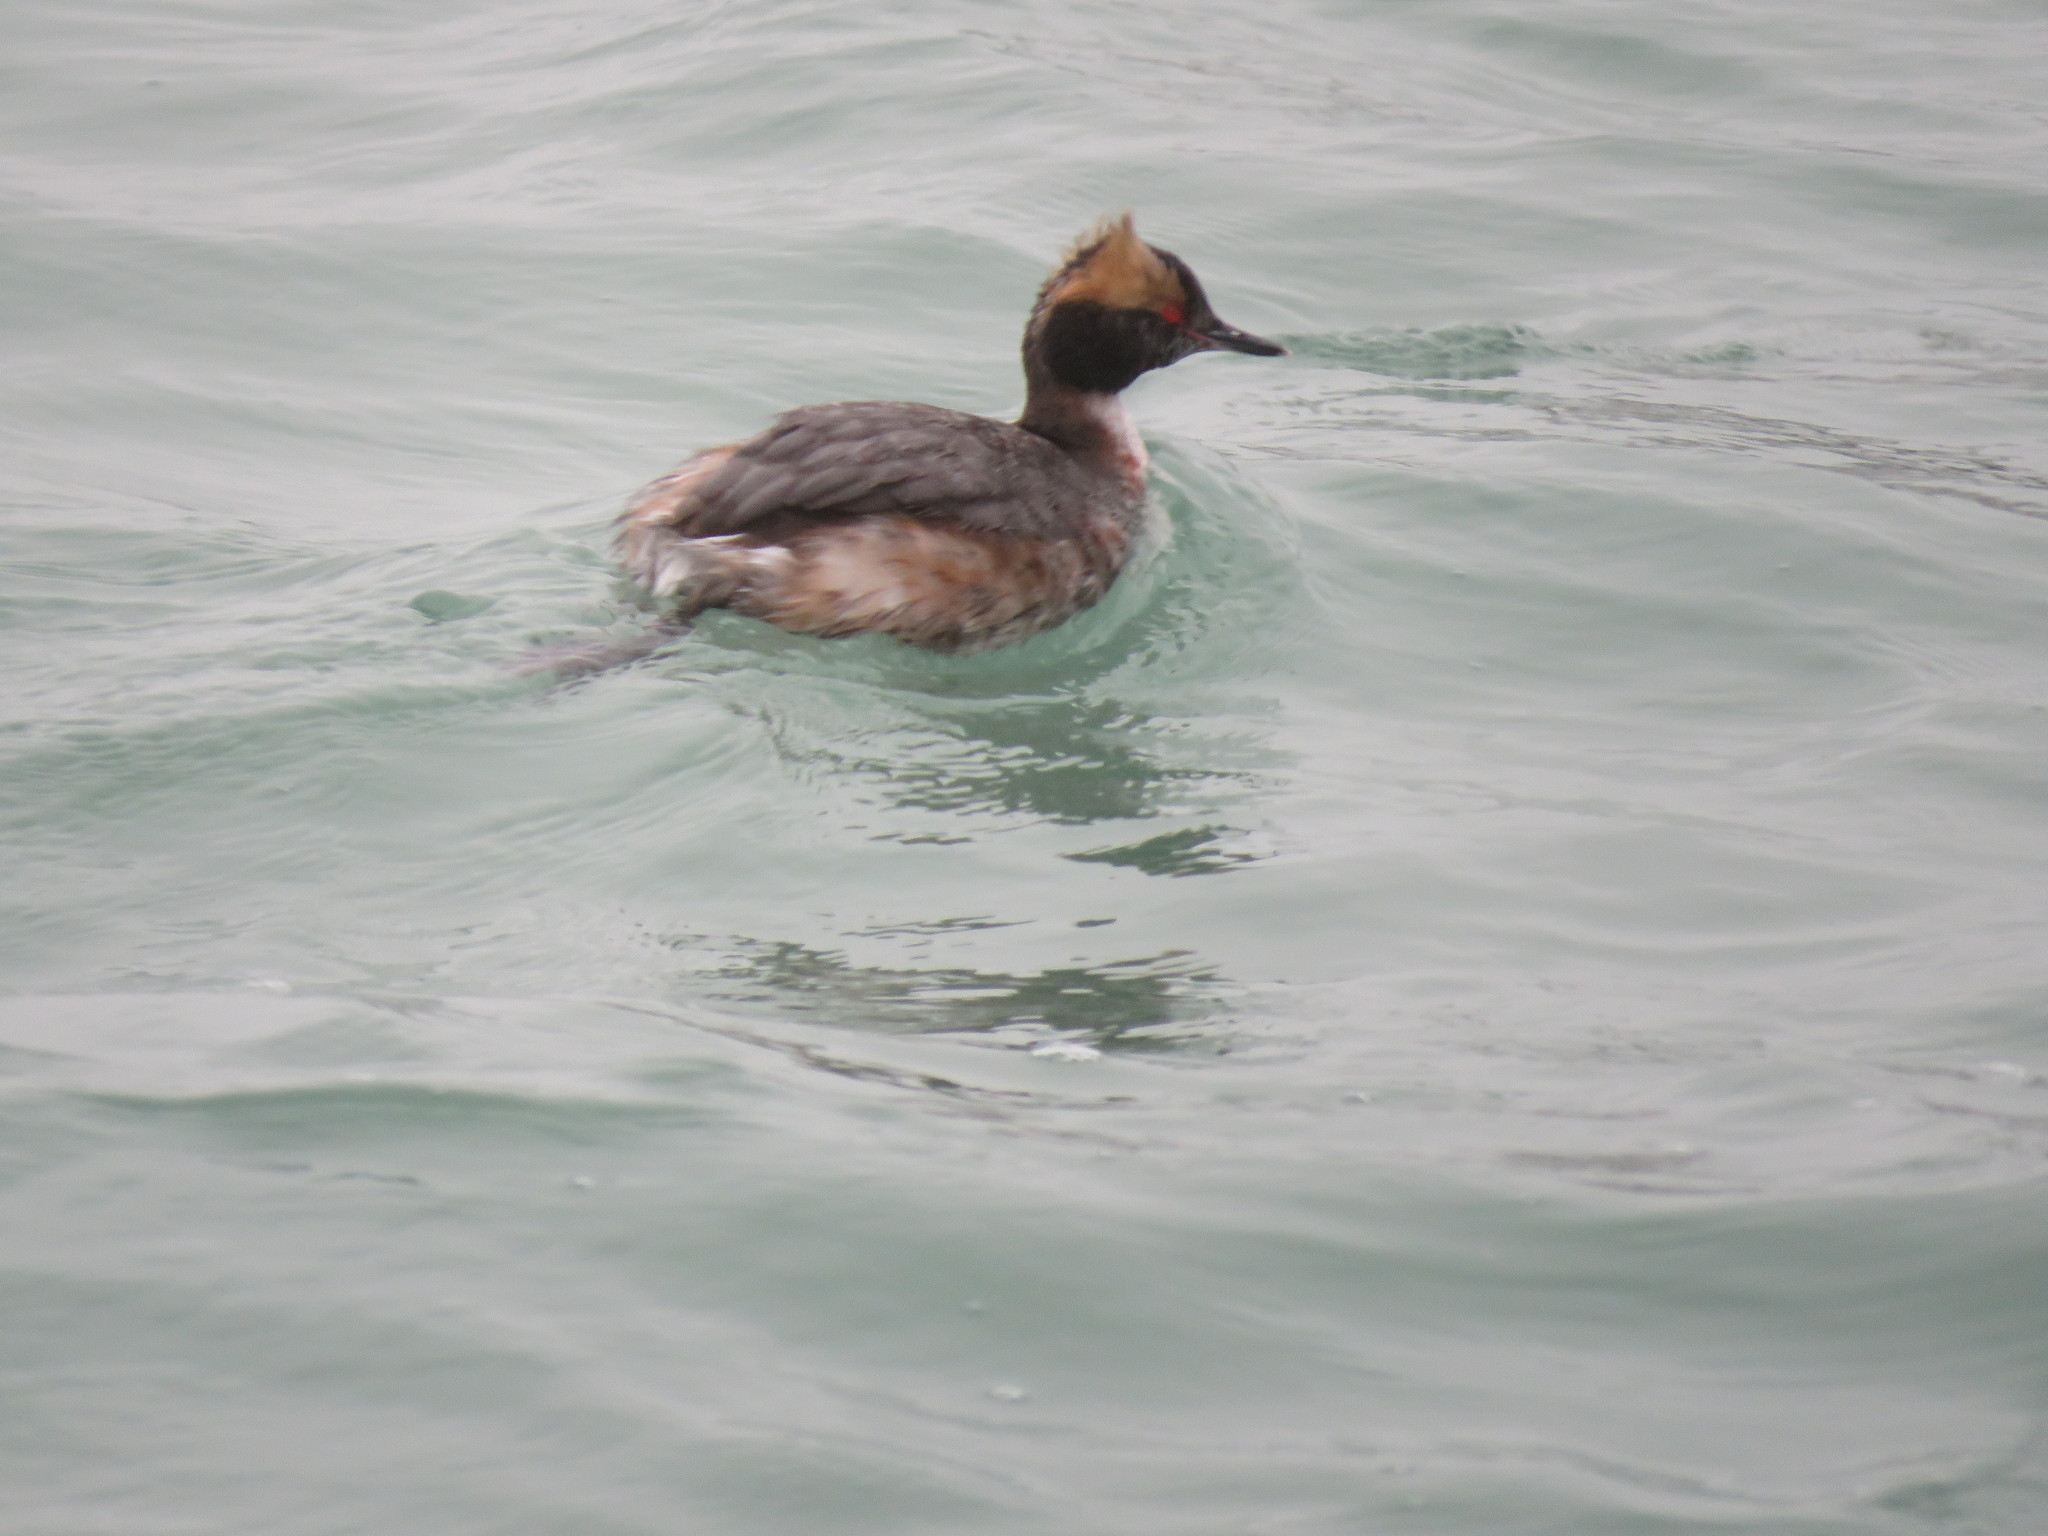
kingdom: Animalia
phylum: Chordata
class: Aves
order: Podicipediformes
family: Podicipedidae
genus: Podiceps
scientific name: Podiceps auritus
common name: Horned grebe
